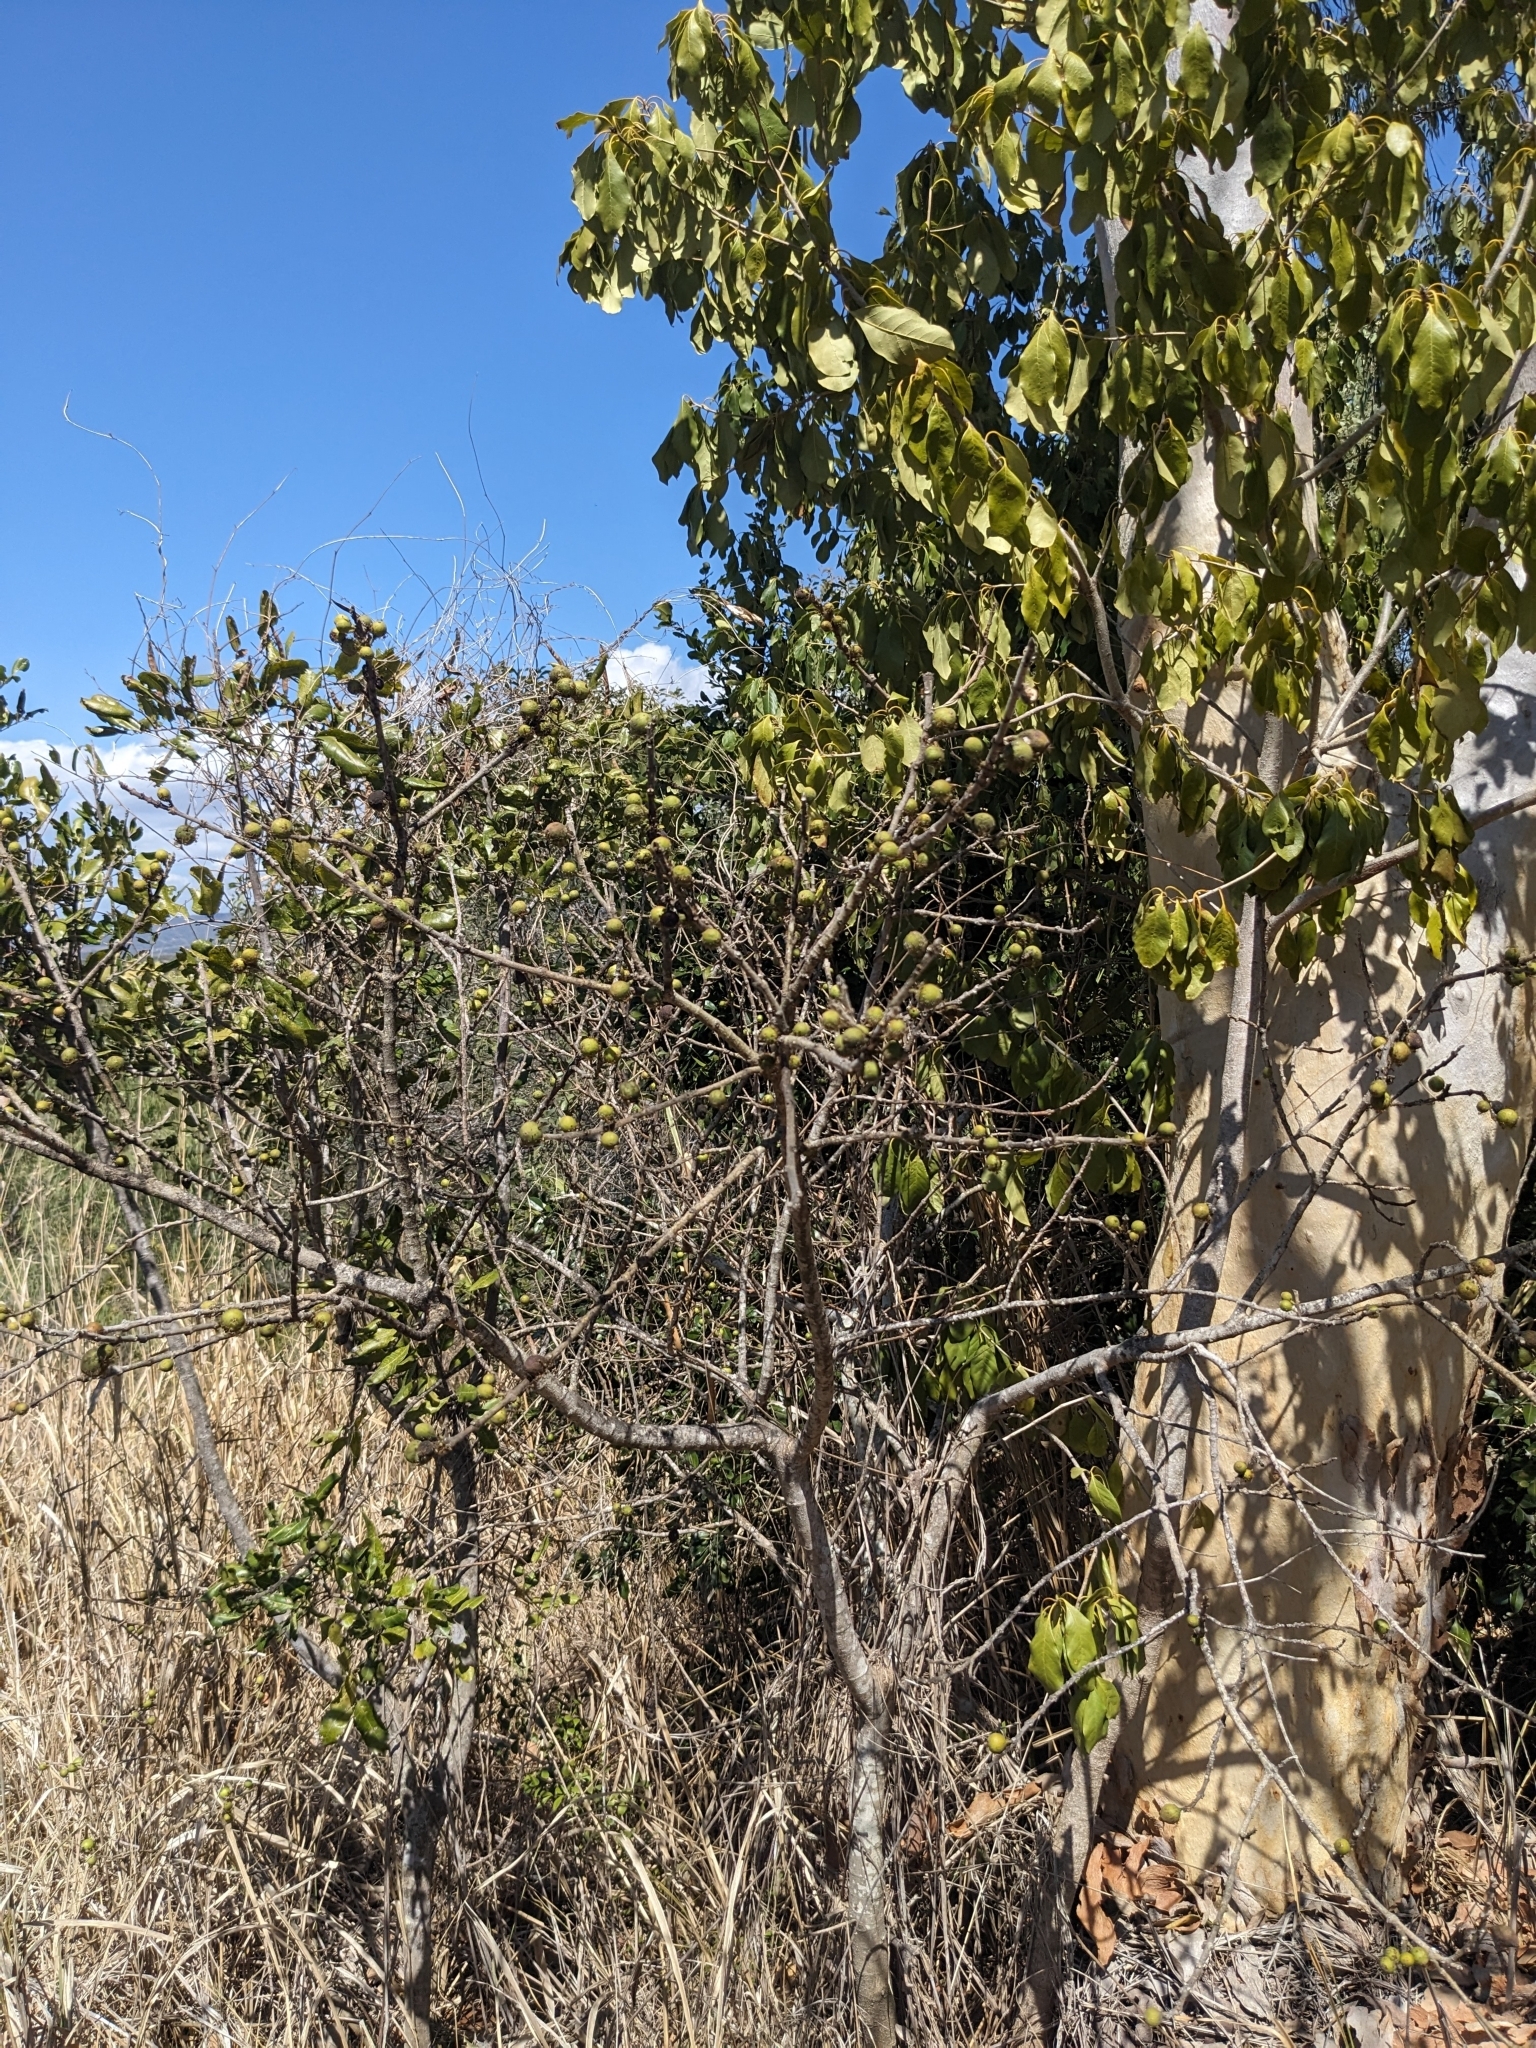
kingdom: Plantae
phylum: Tracheophyta
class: Magnoliopsida
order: Rosales
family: Moraceae
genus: Ficus
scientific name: Ficus opposita
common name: Figwood
